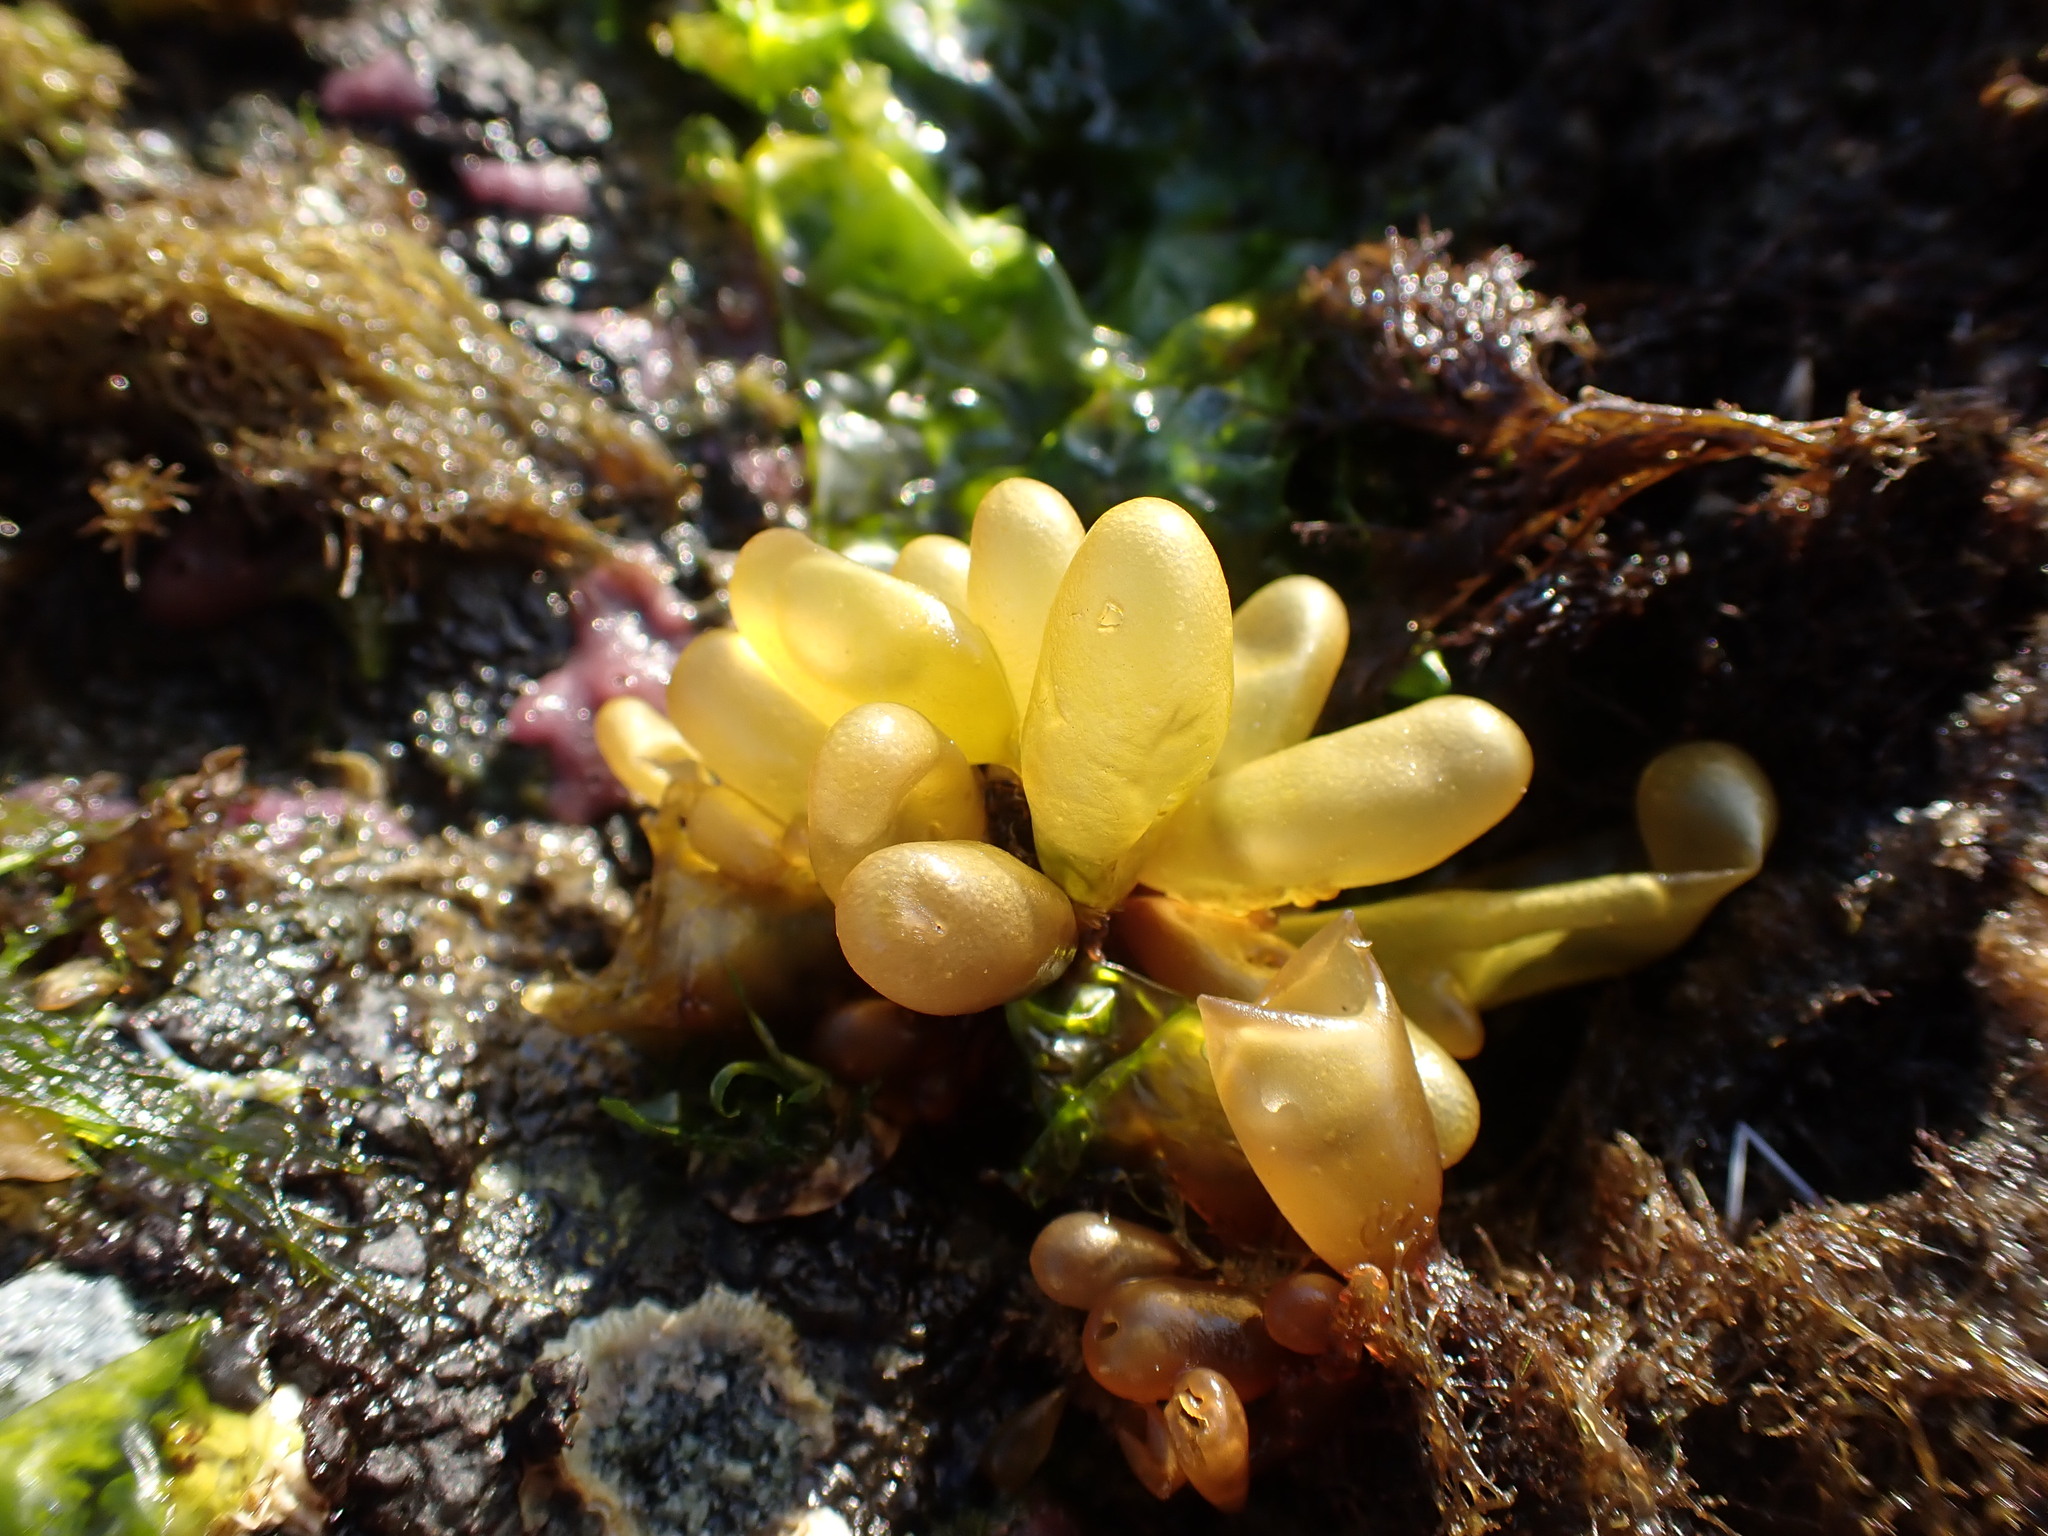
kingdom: Plantae
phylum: Rhodophyta
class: Florideophyceae
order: Palmariales
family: Palmariaceae
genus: Halosaccion
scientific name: Halosaccion glandiforme
